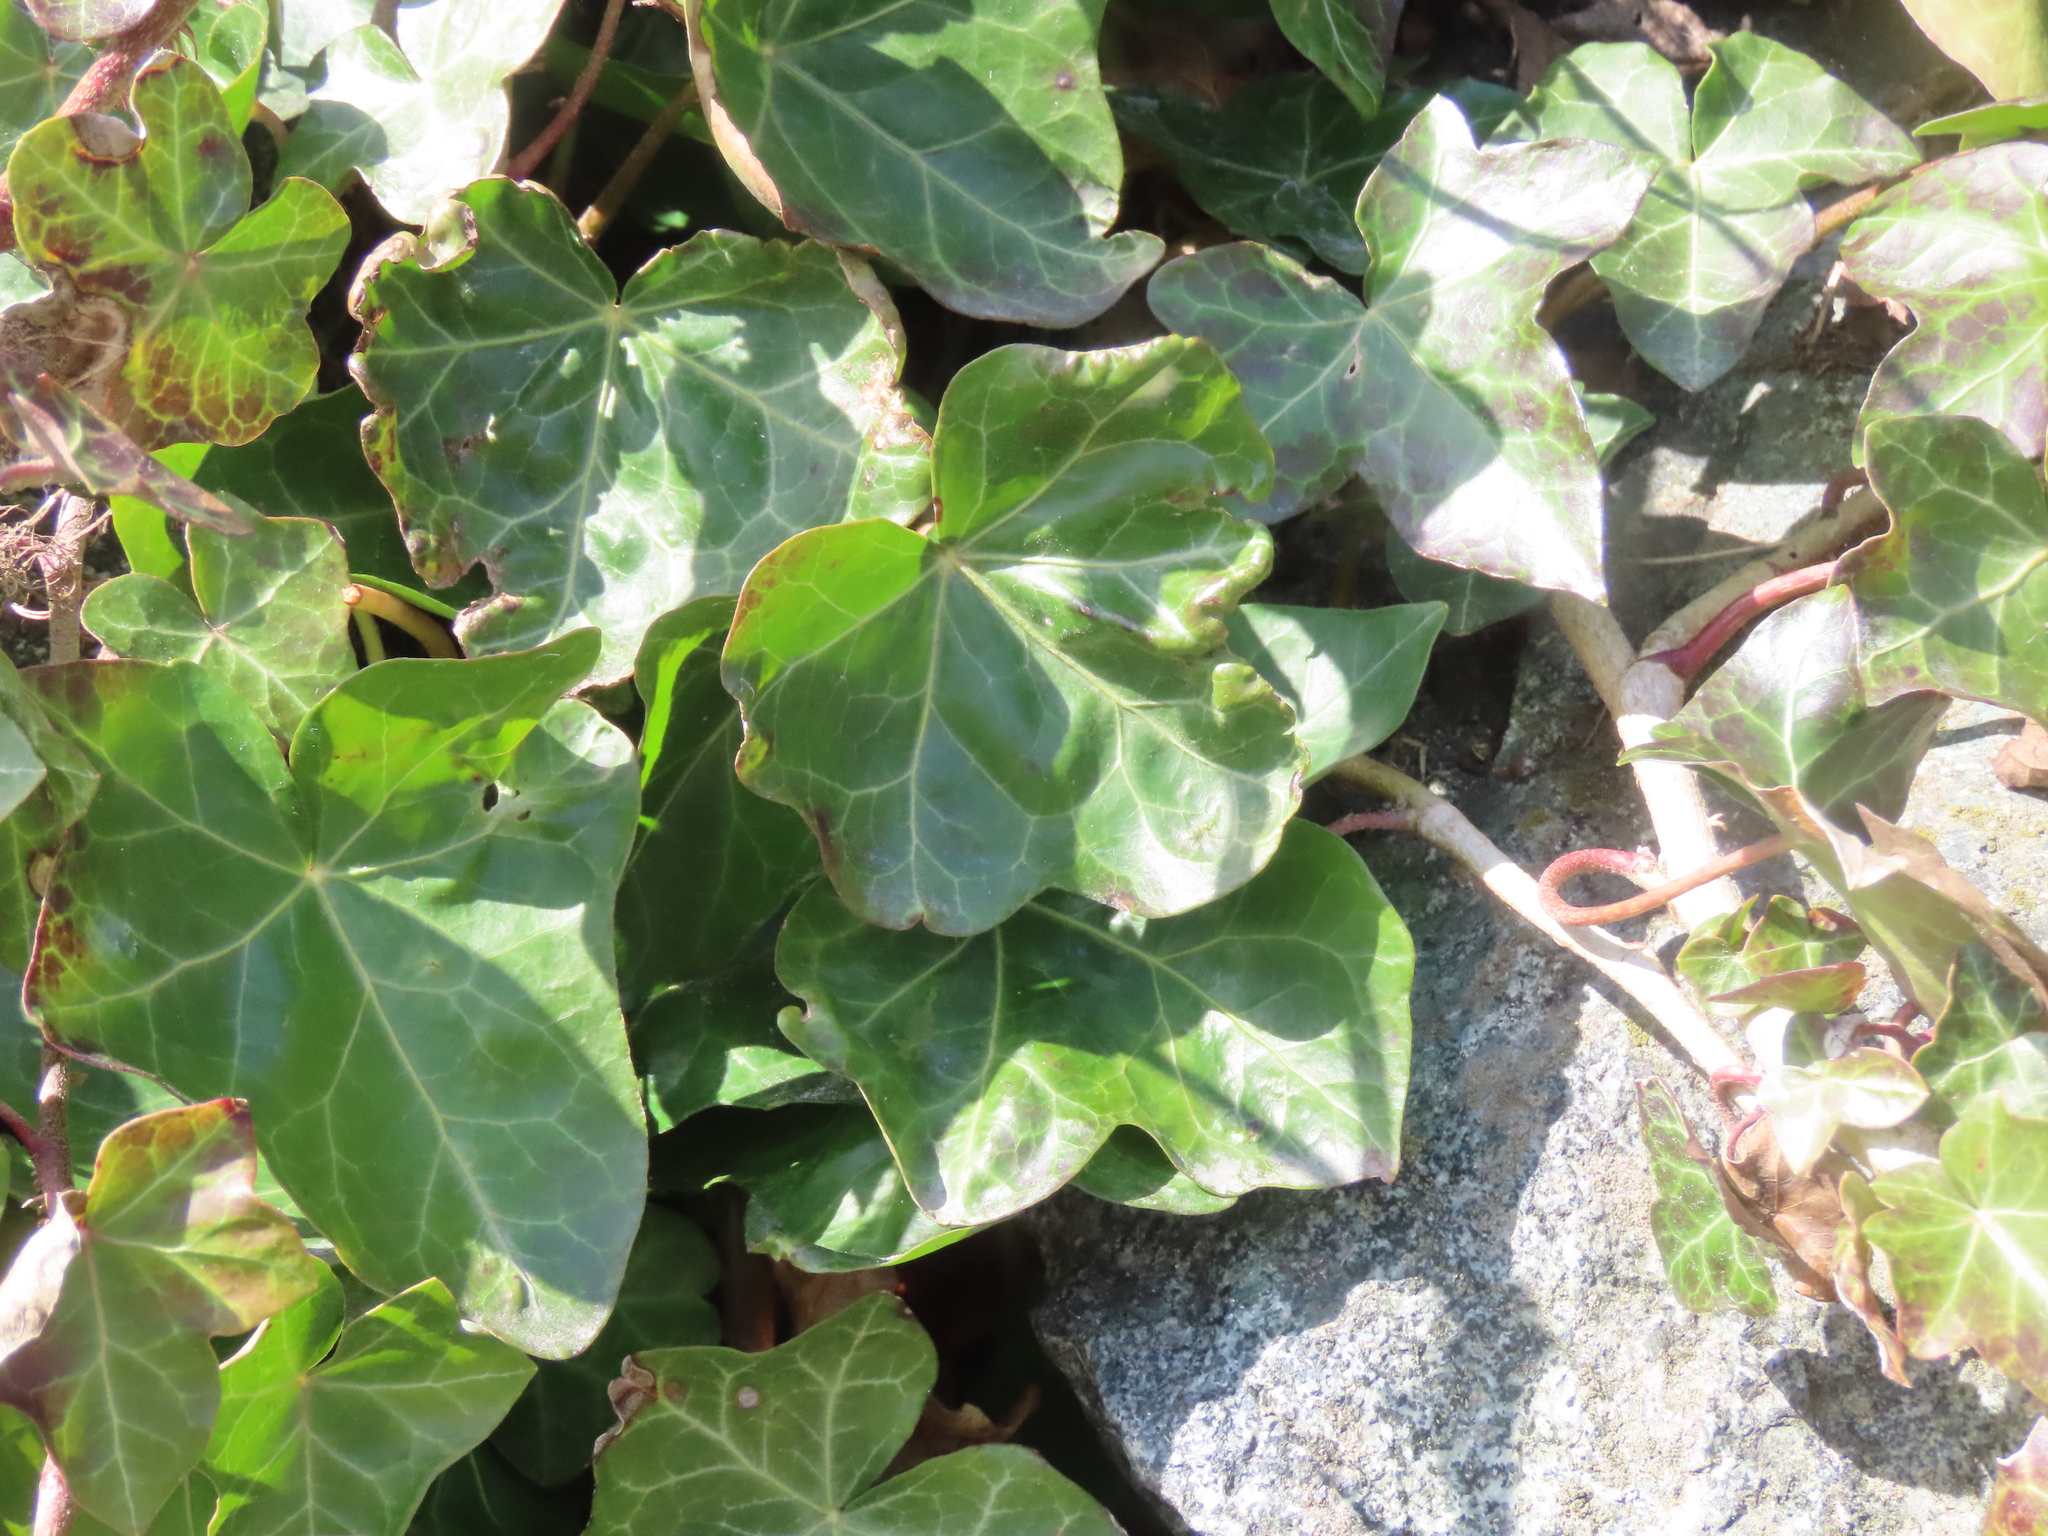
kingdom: Plantae
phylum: Tracheophyta
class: Magnoliopsida
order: Apiales
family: Araliaceae
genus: Hedera
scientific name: Hedera helix
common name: Ivy
